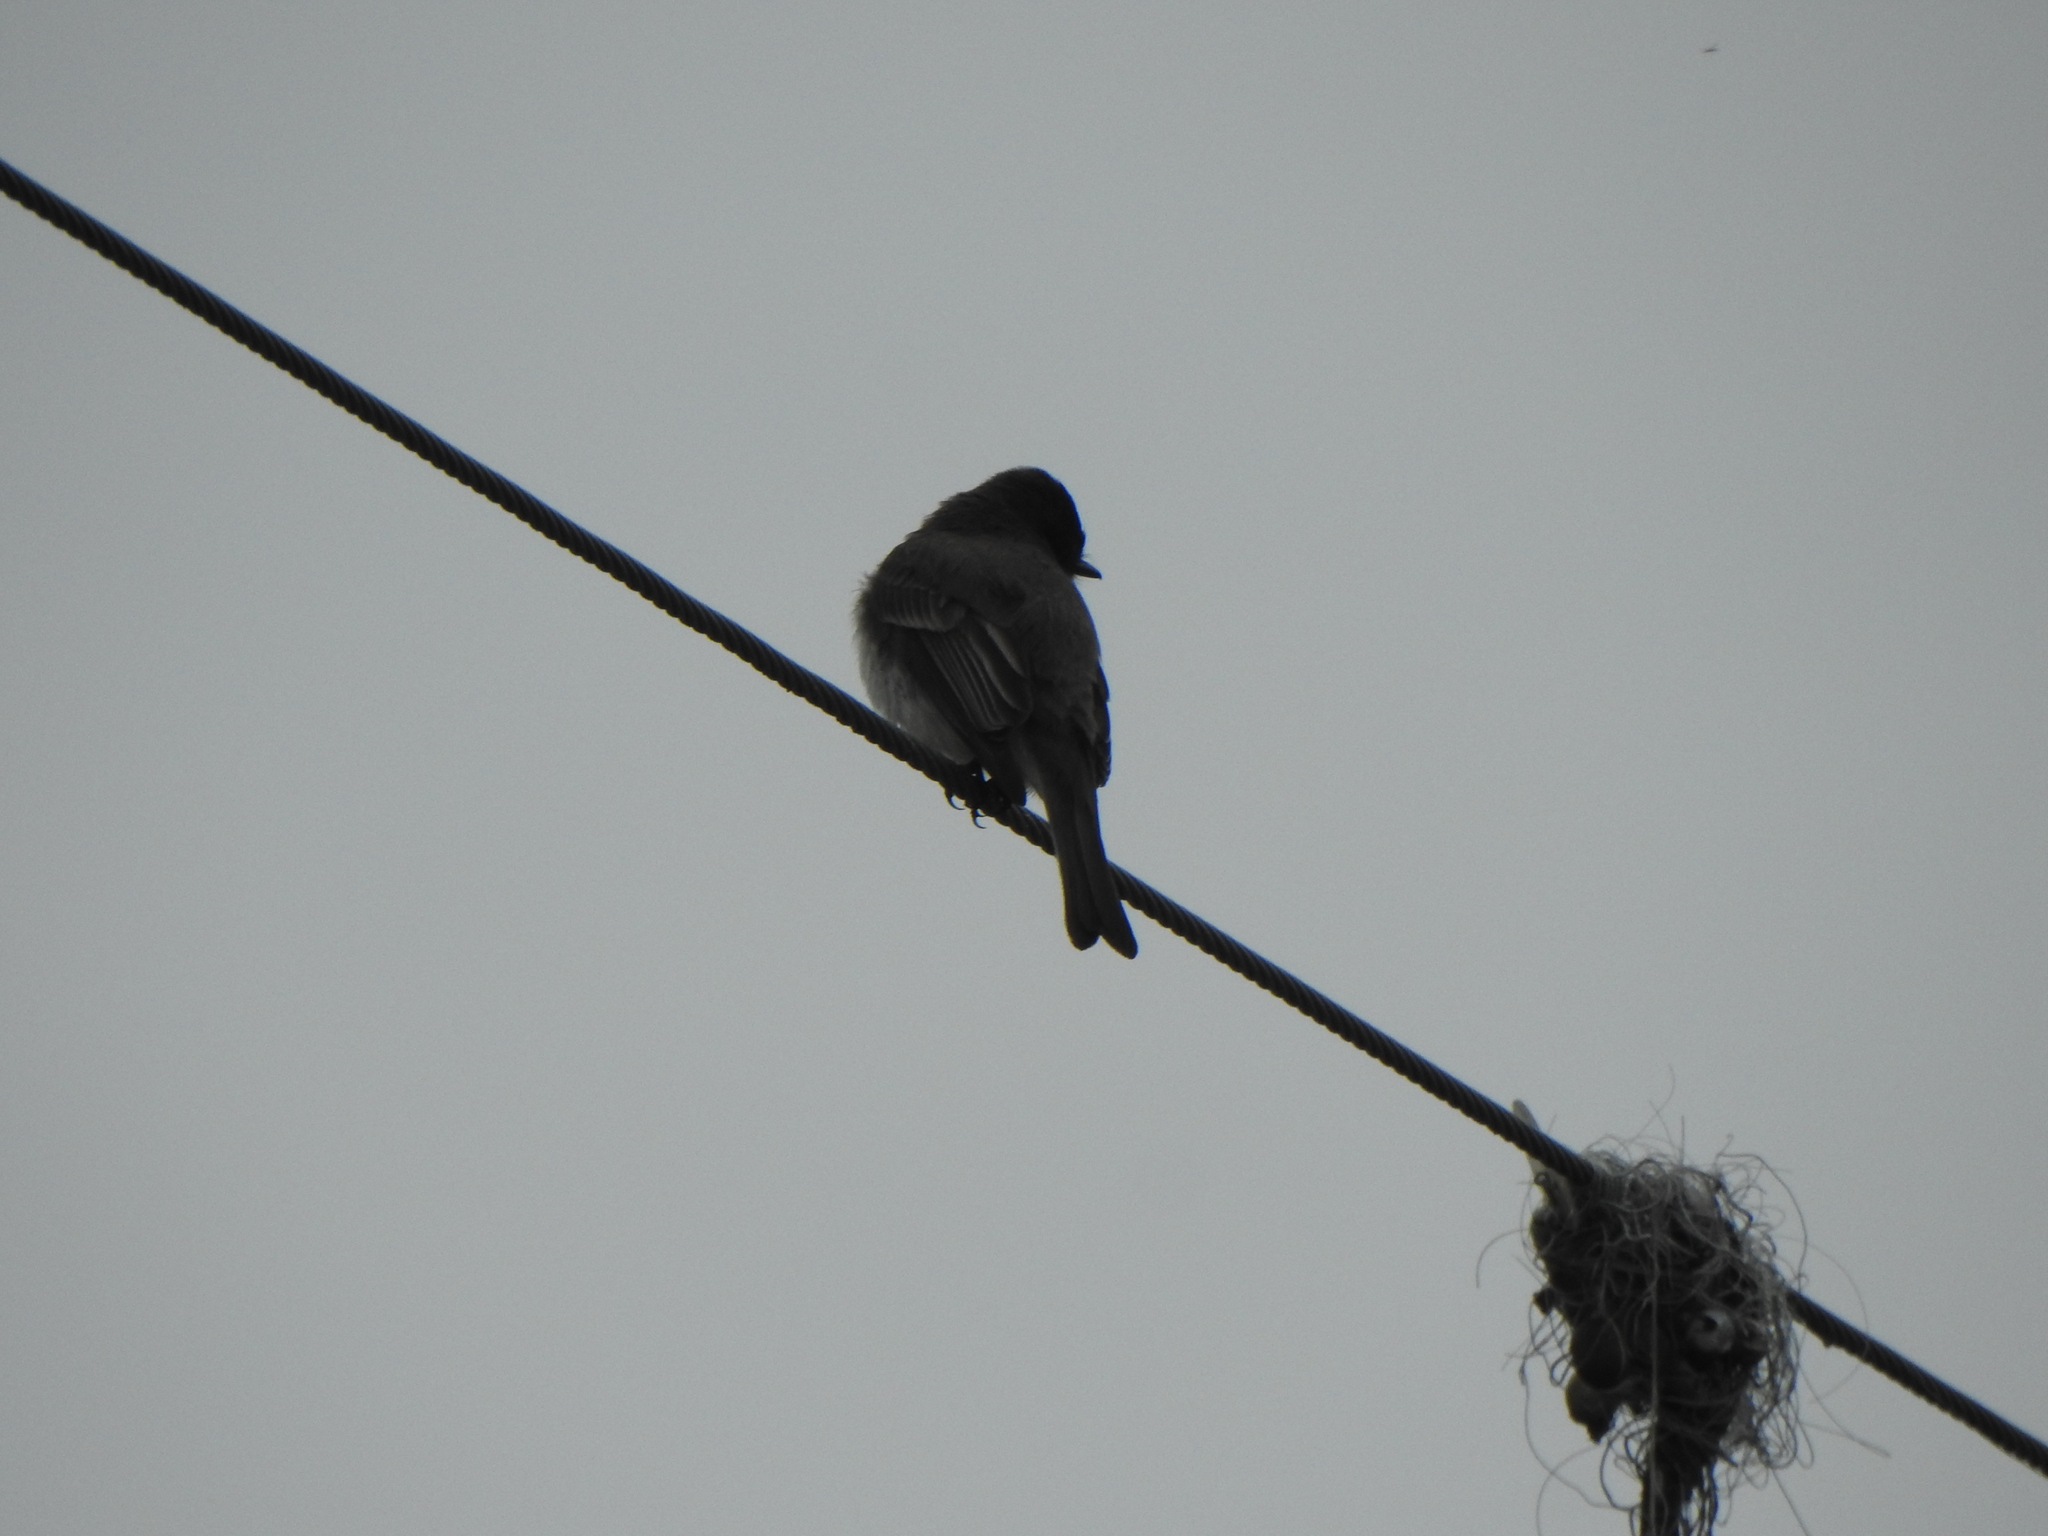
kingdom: Animalia
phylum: Chordata
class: Aves
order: Passeriformes
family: Tyrannidae
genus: Sayornis
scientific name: Sayornis phoebe
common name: Eastern phoebe
